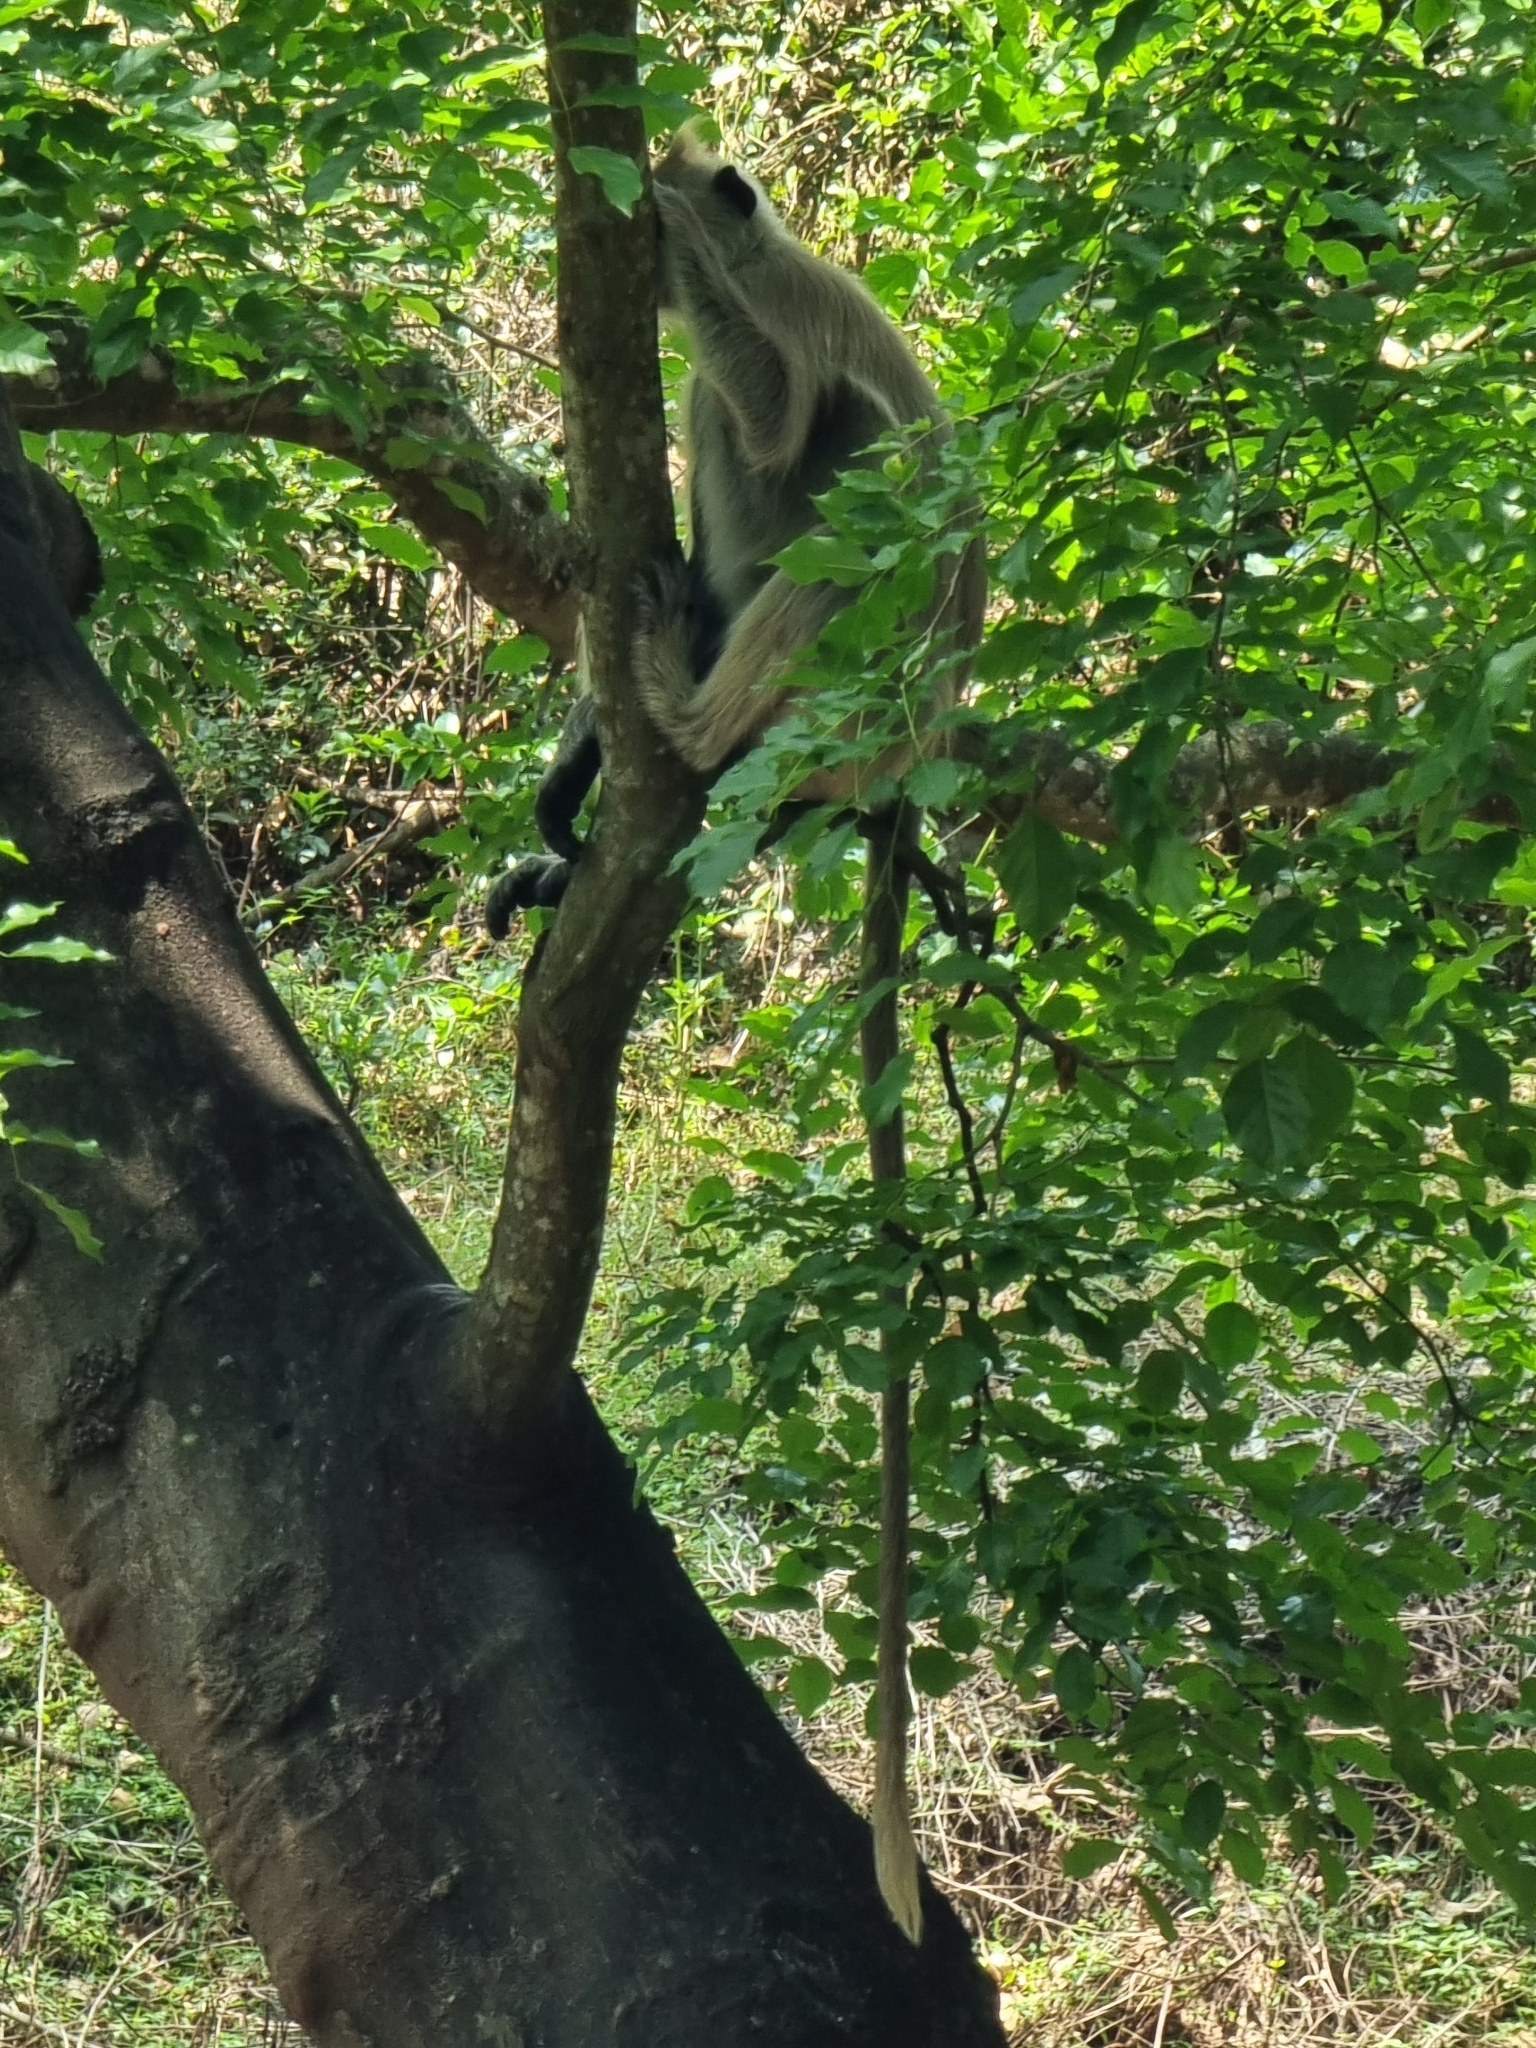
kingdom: Animalia
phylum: Chordata
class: Mammalia
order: Primates
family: Cercopithecidae
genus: Semnopithecus
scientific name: Semnopithecus priam
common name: Tufted gray langur
